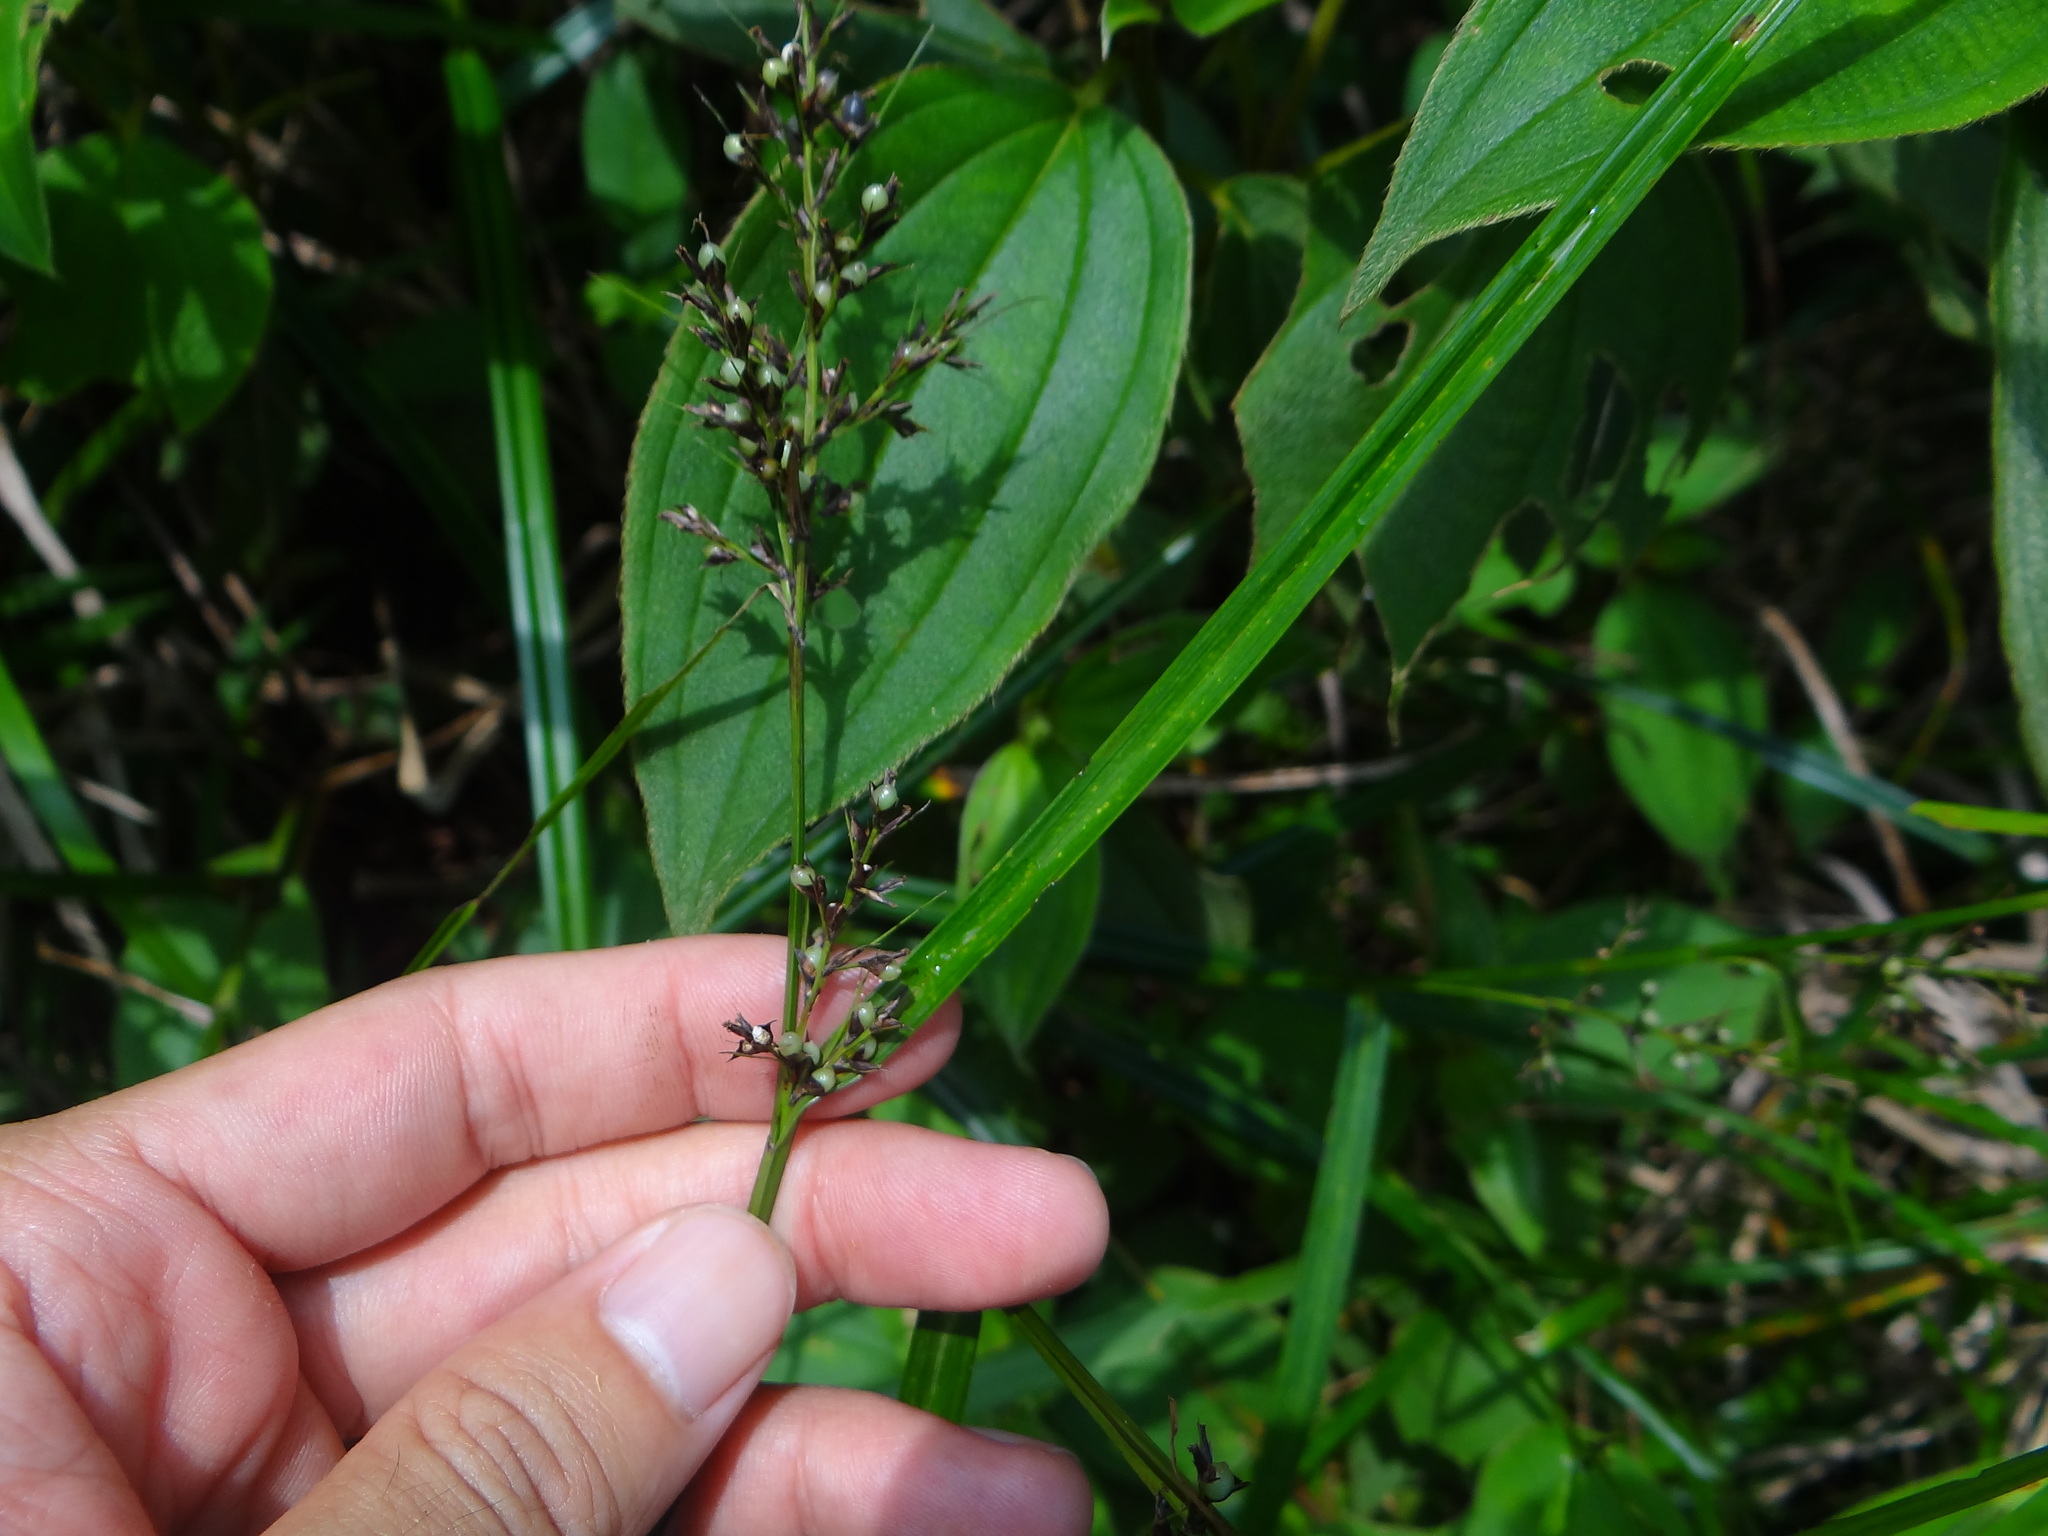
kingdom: Plantae
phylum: Tracheophyta
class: Liliopsida
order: Poales
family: Cyperaceae
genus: Scleria
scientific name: Scleria terrestris
